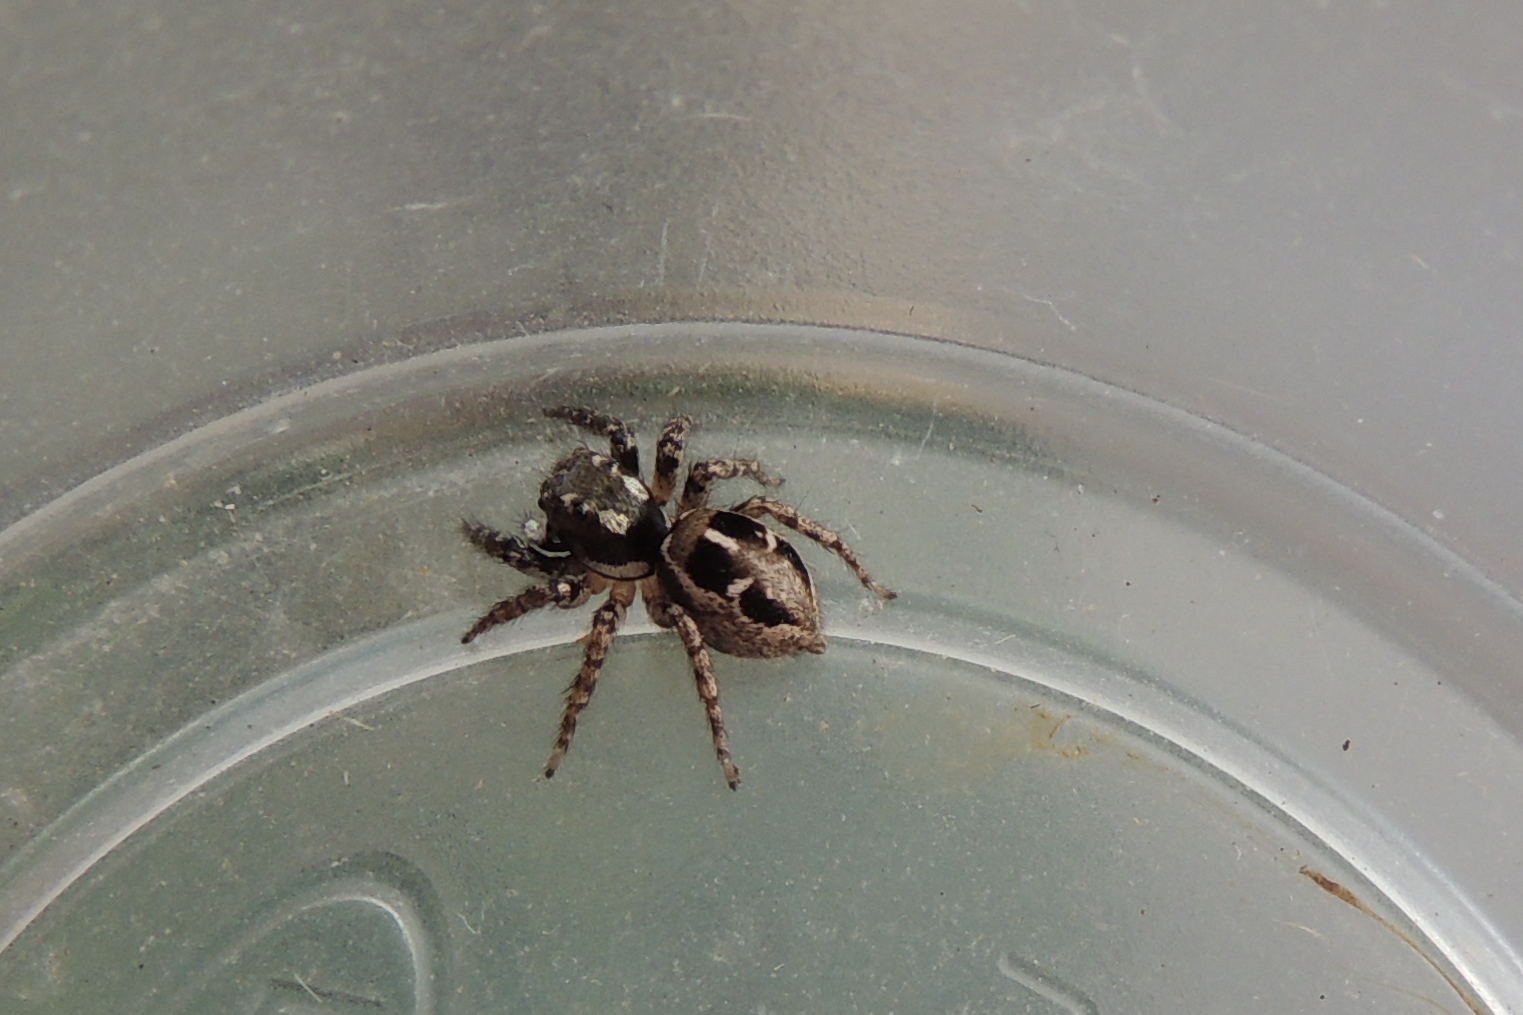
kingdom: Animalia
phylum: Arthropoda
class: Arachnida
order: Araneae
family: Salticidae
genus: Anasaitis
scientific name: Anasaitis canosa
